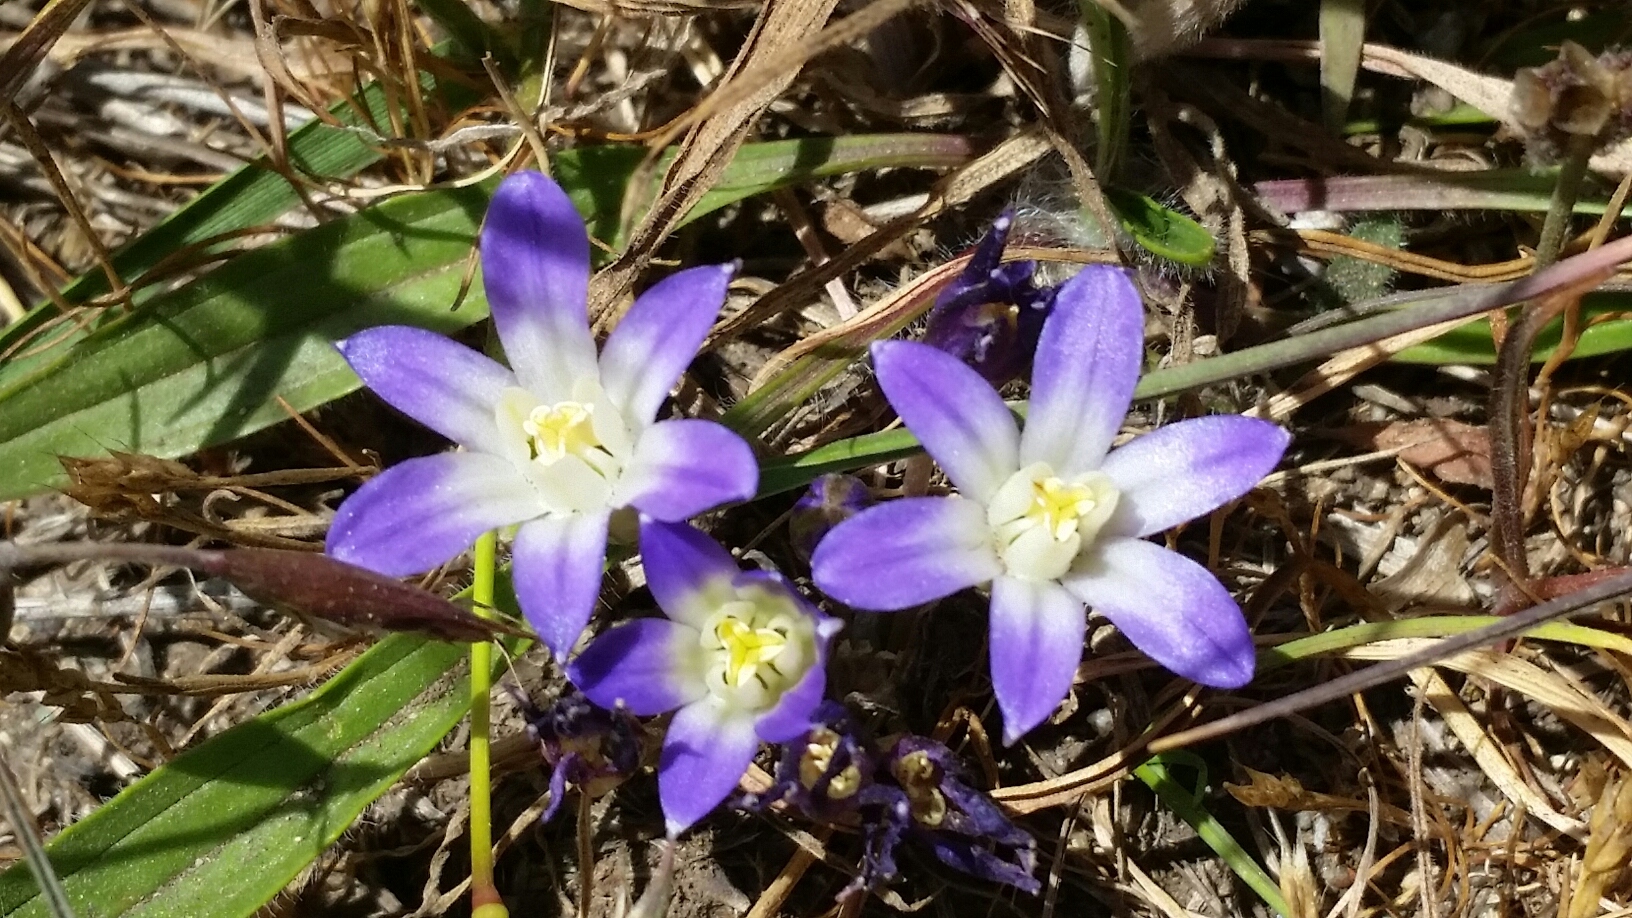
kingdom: Plantae
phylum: Tracheophyta
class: Liliopsida
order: Asparagales
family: Asparagaceae
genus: Brodiaea
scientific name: Brodiaea terrestris
